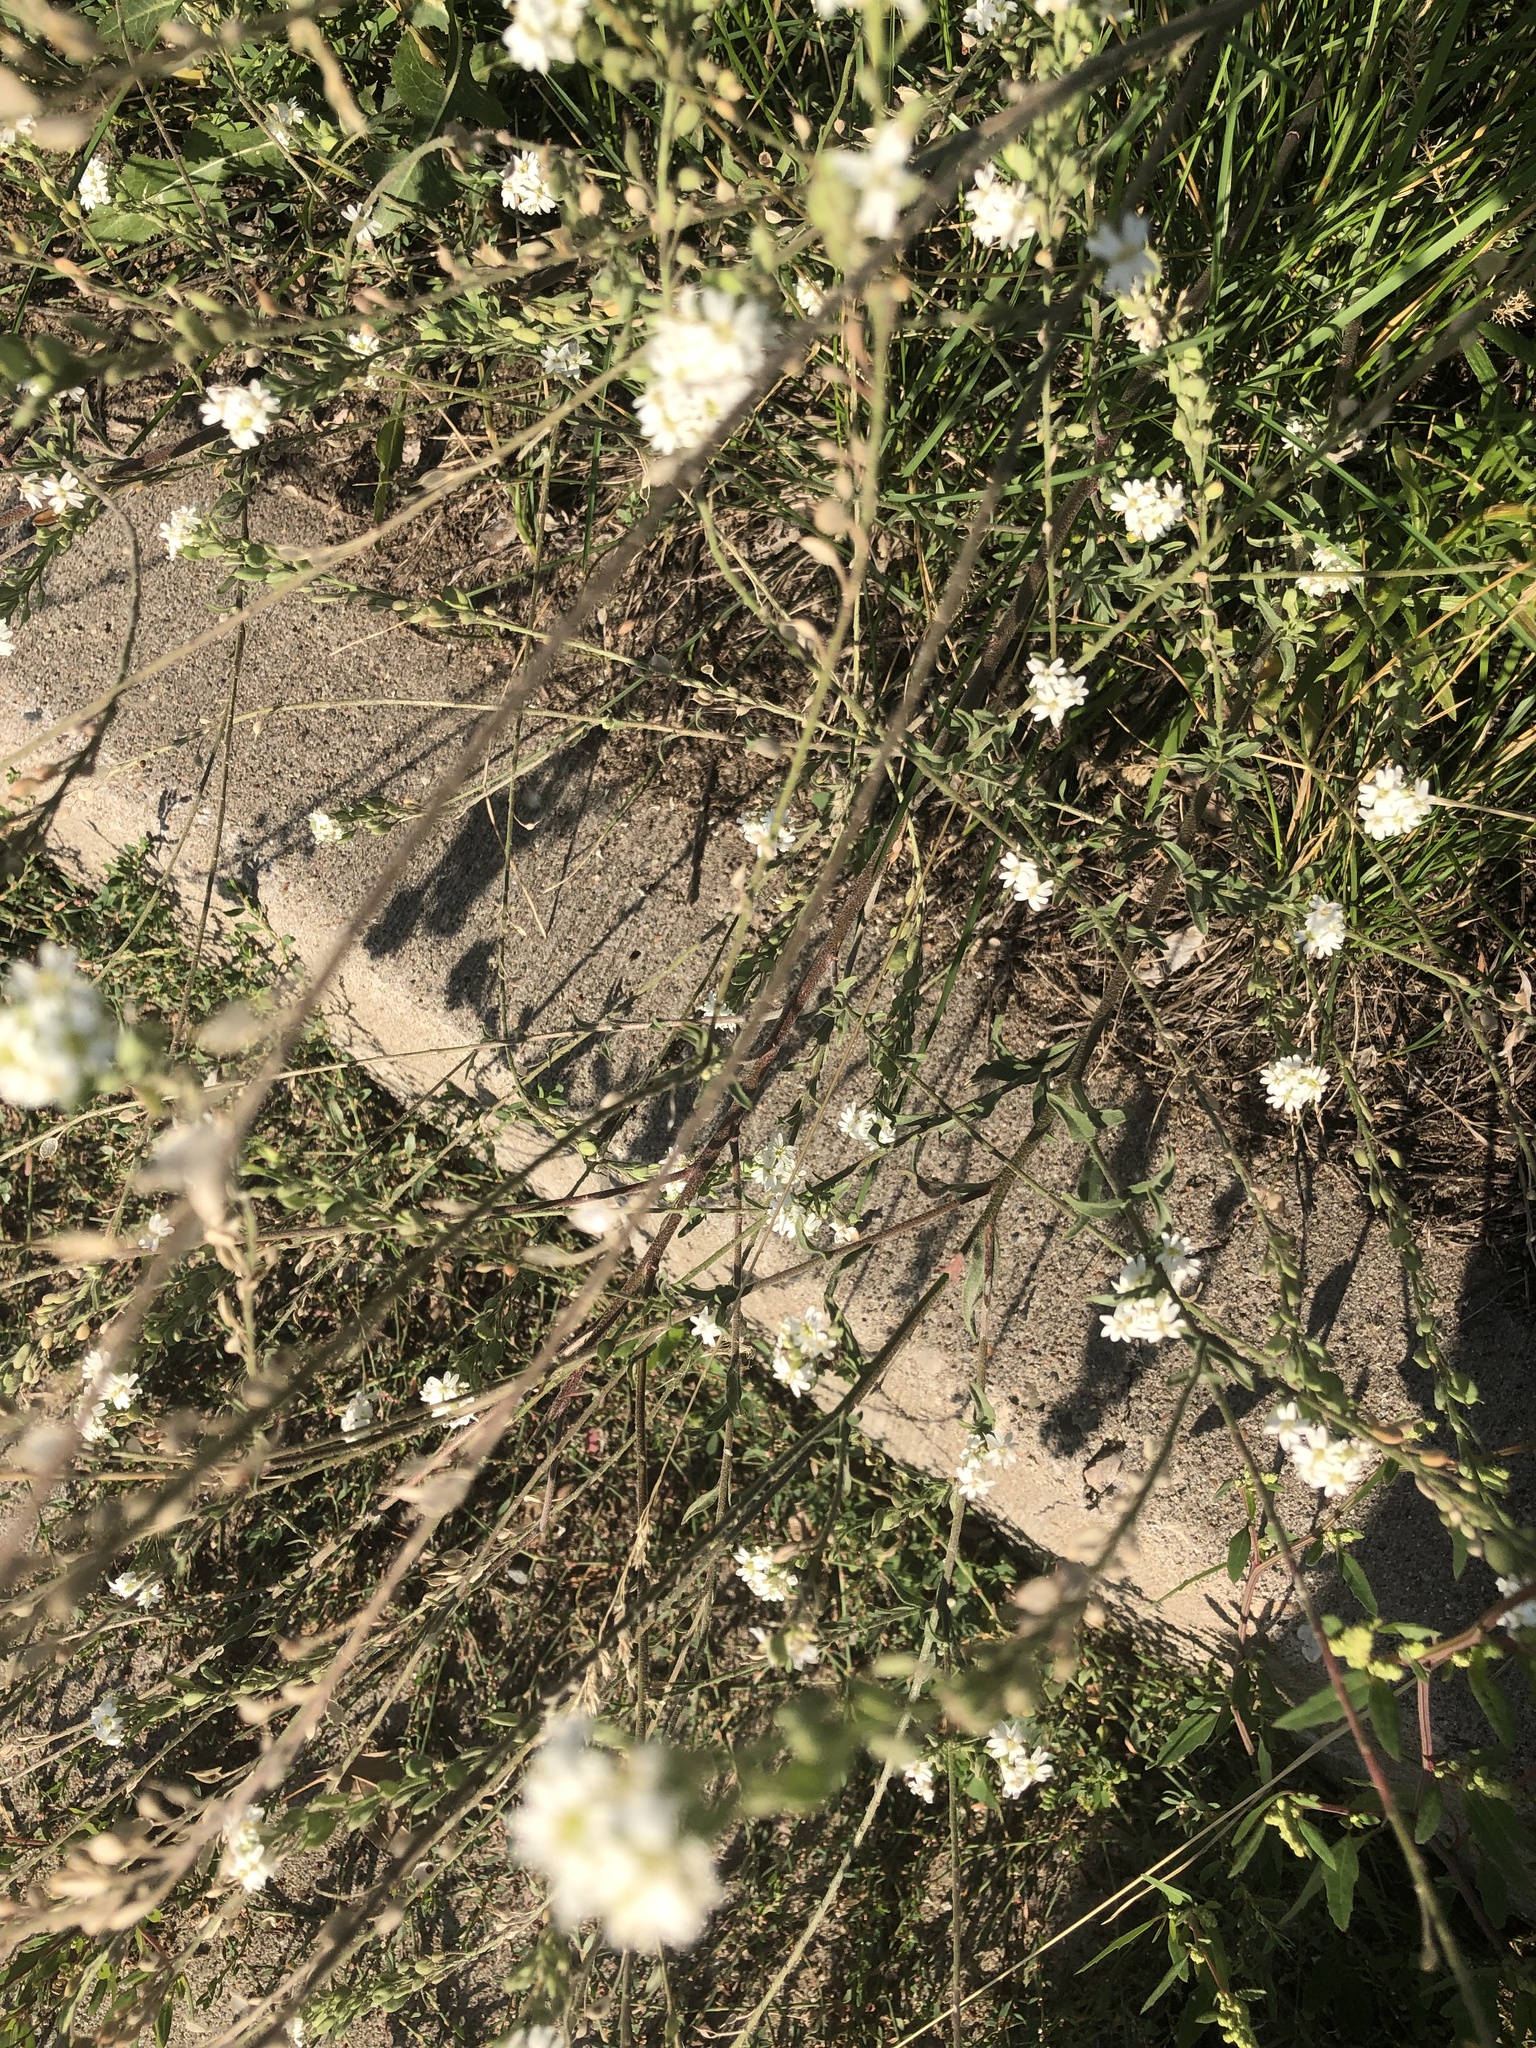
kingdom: Plantae
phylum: Tracheophyta
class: Magnoliopsida
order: Brassicales
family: Brassicaceae
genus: Berteroa
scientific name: Berteroa incana
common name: Hoary alison
